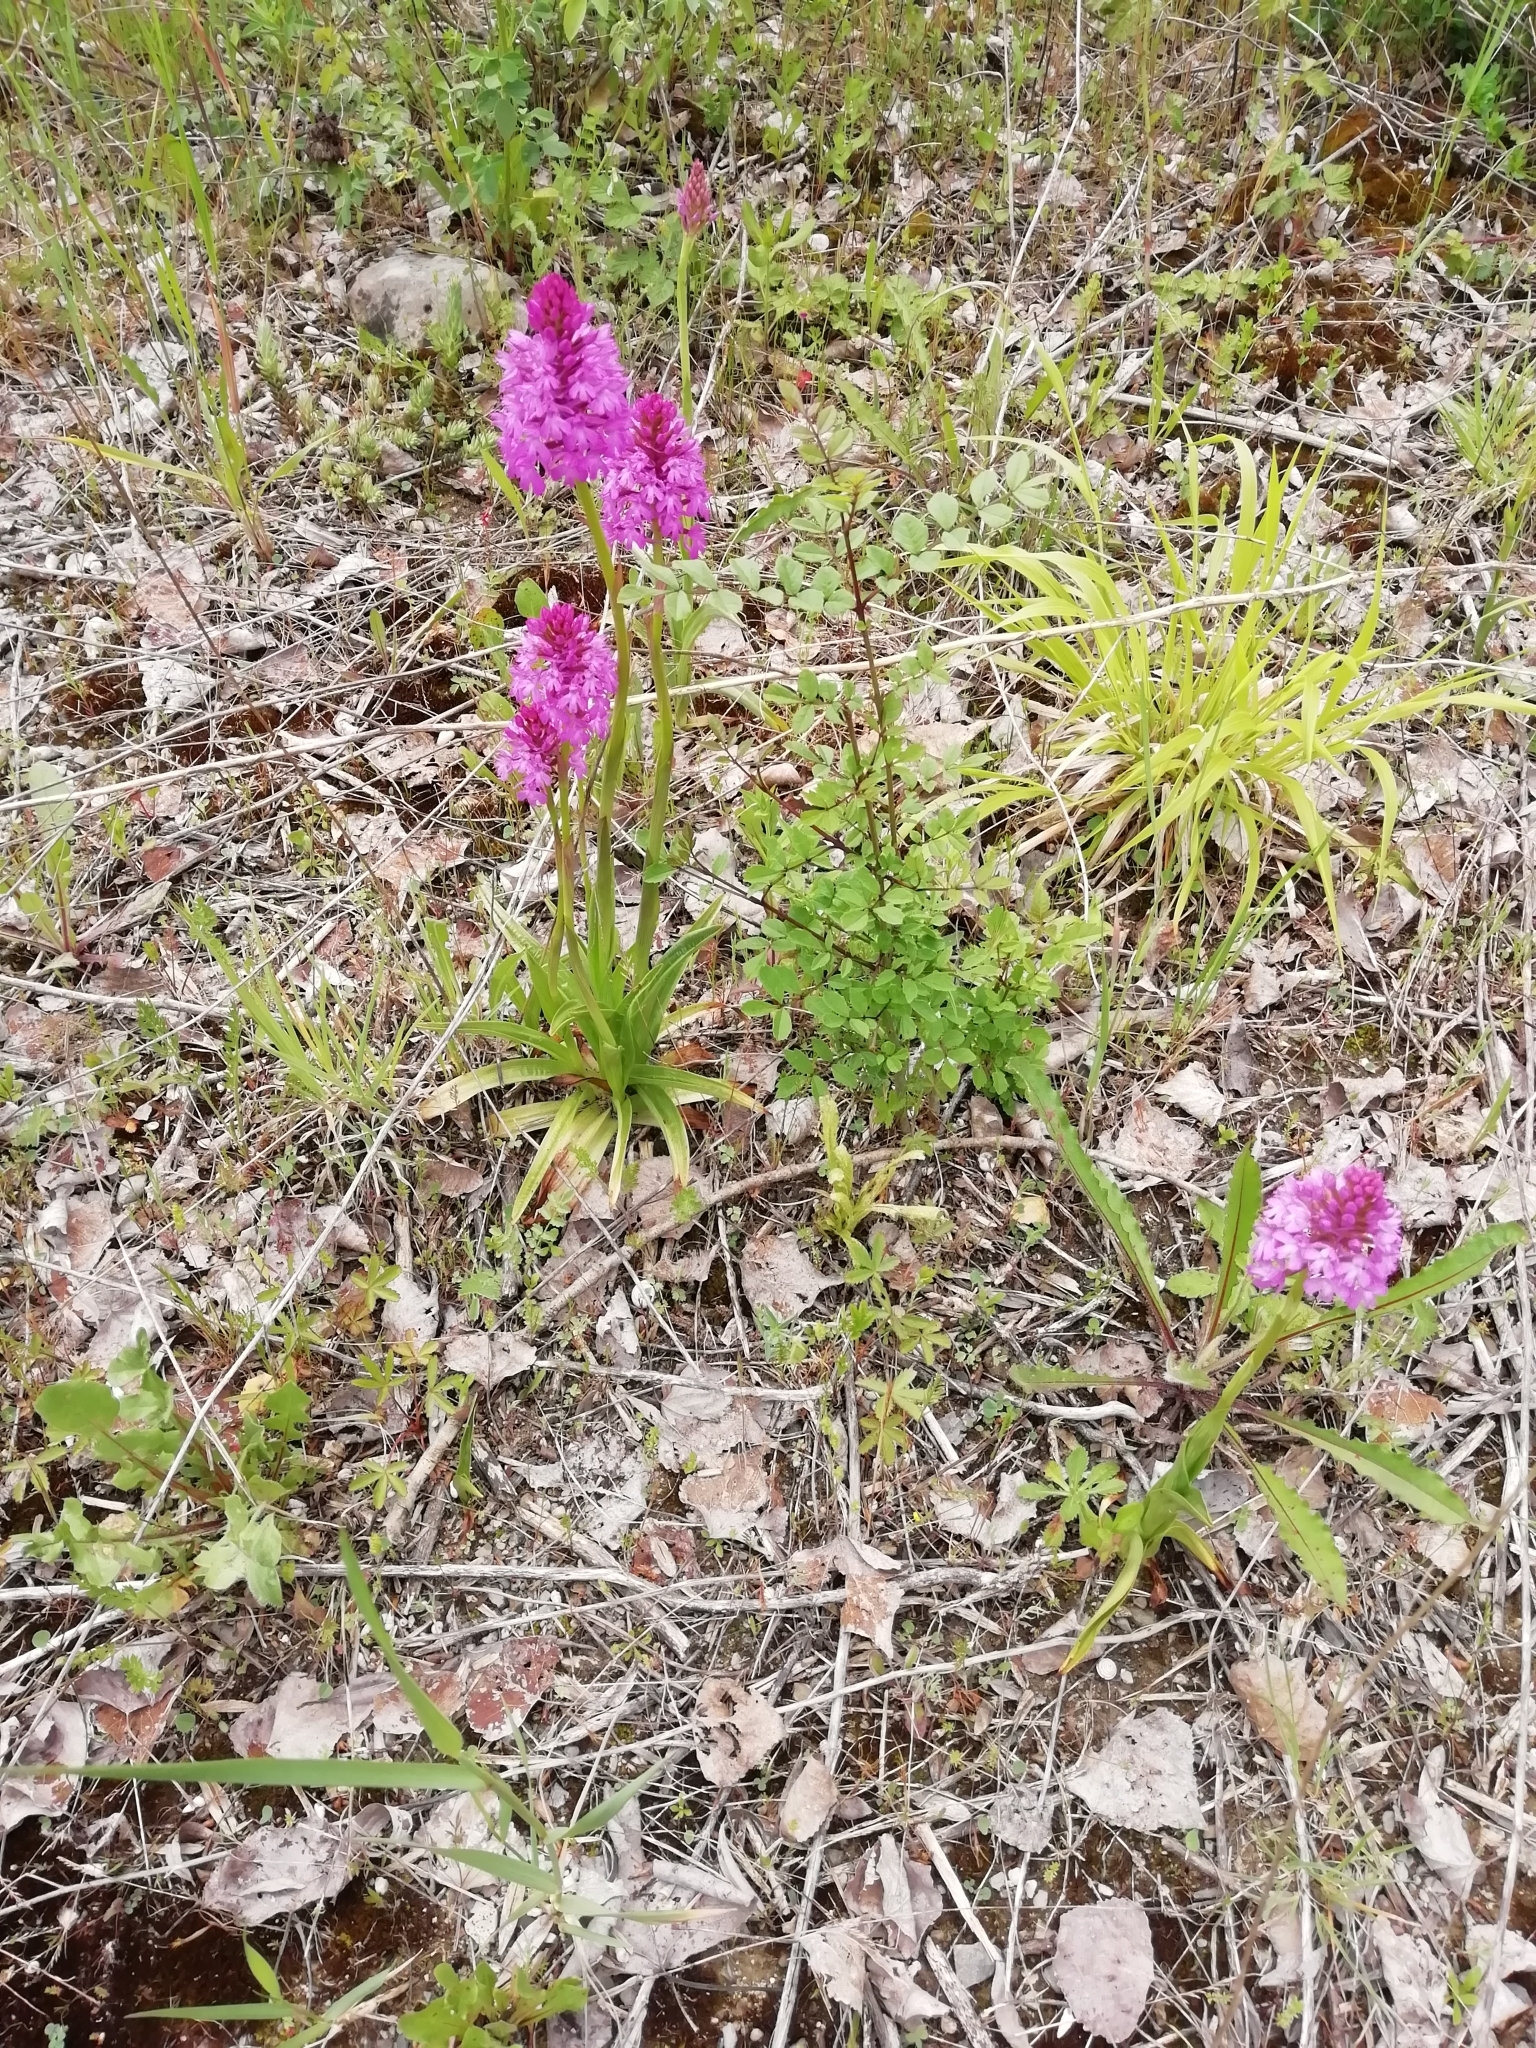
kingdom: Plantae
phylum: Tracheophyta
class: Liliopsida
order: Asparagales
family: Orchidaceae
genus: Anacamptis
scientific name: Anacamptis pyramidalis
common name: Pyramidal orchid
